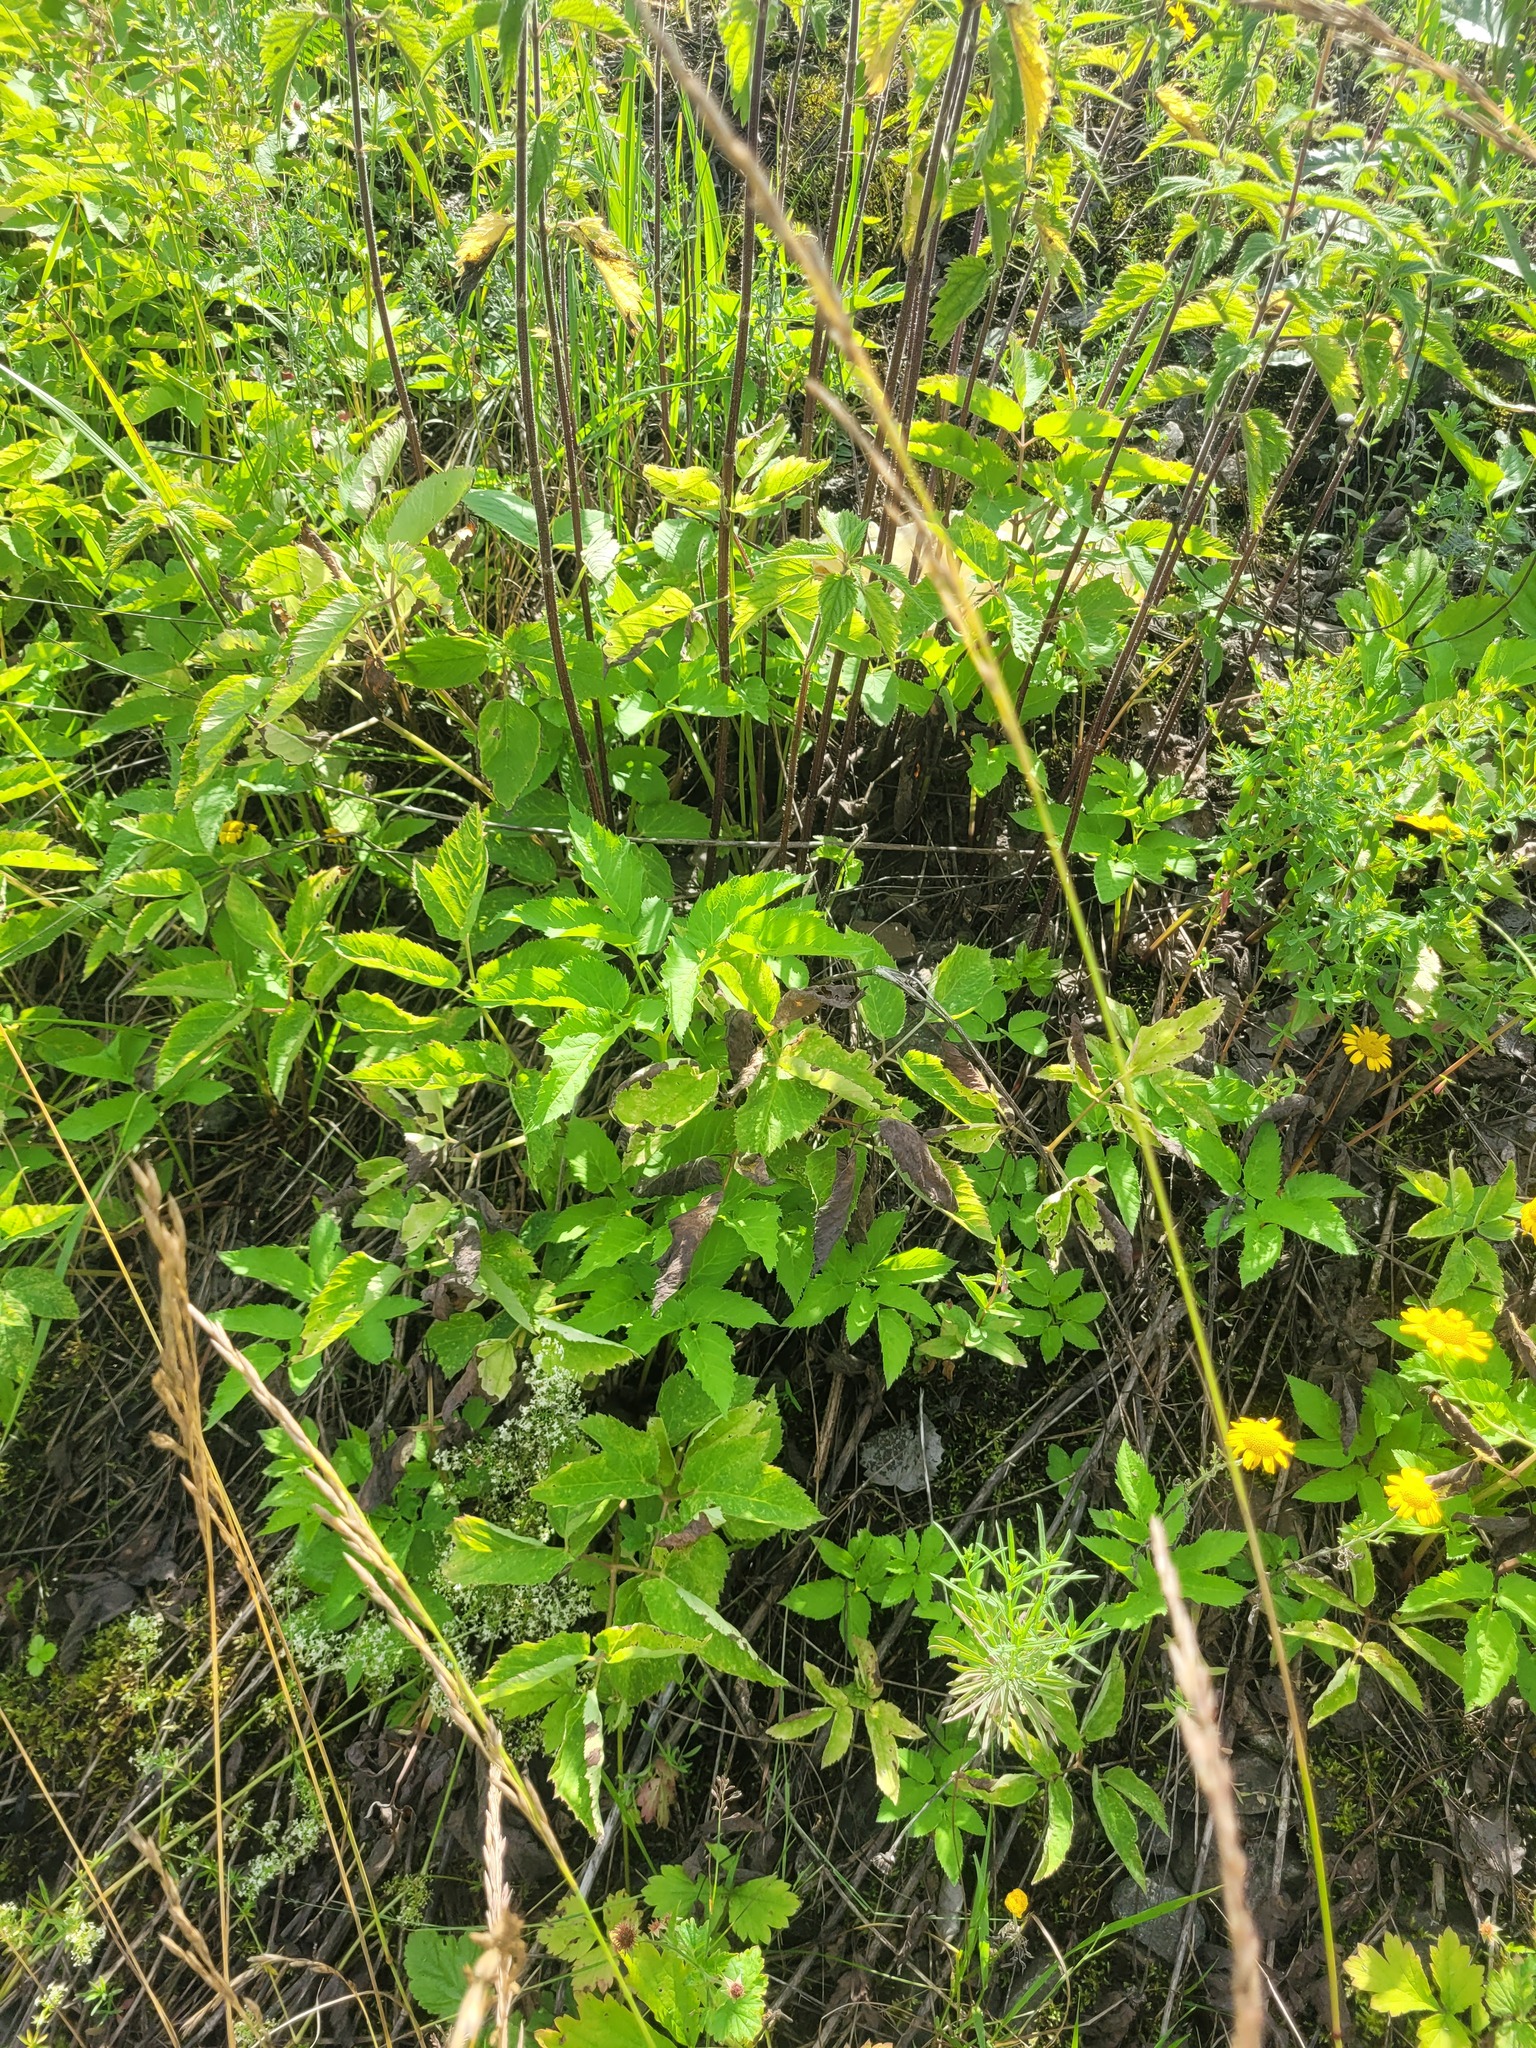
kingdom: Plantae
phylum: Tracheophyta
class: Magnoliopsida
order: Apiales
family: Apiaceae
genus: Aegopodium
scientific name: Aegopodium podagraria
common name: Ground-elder
